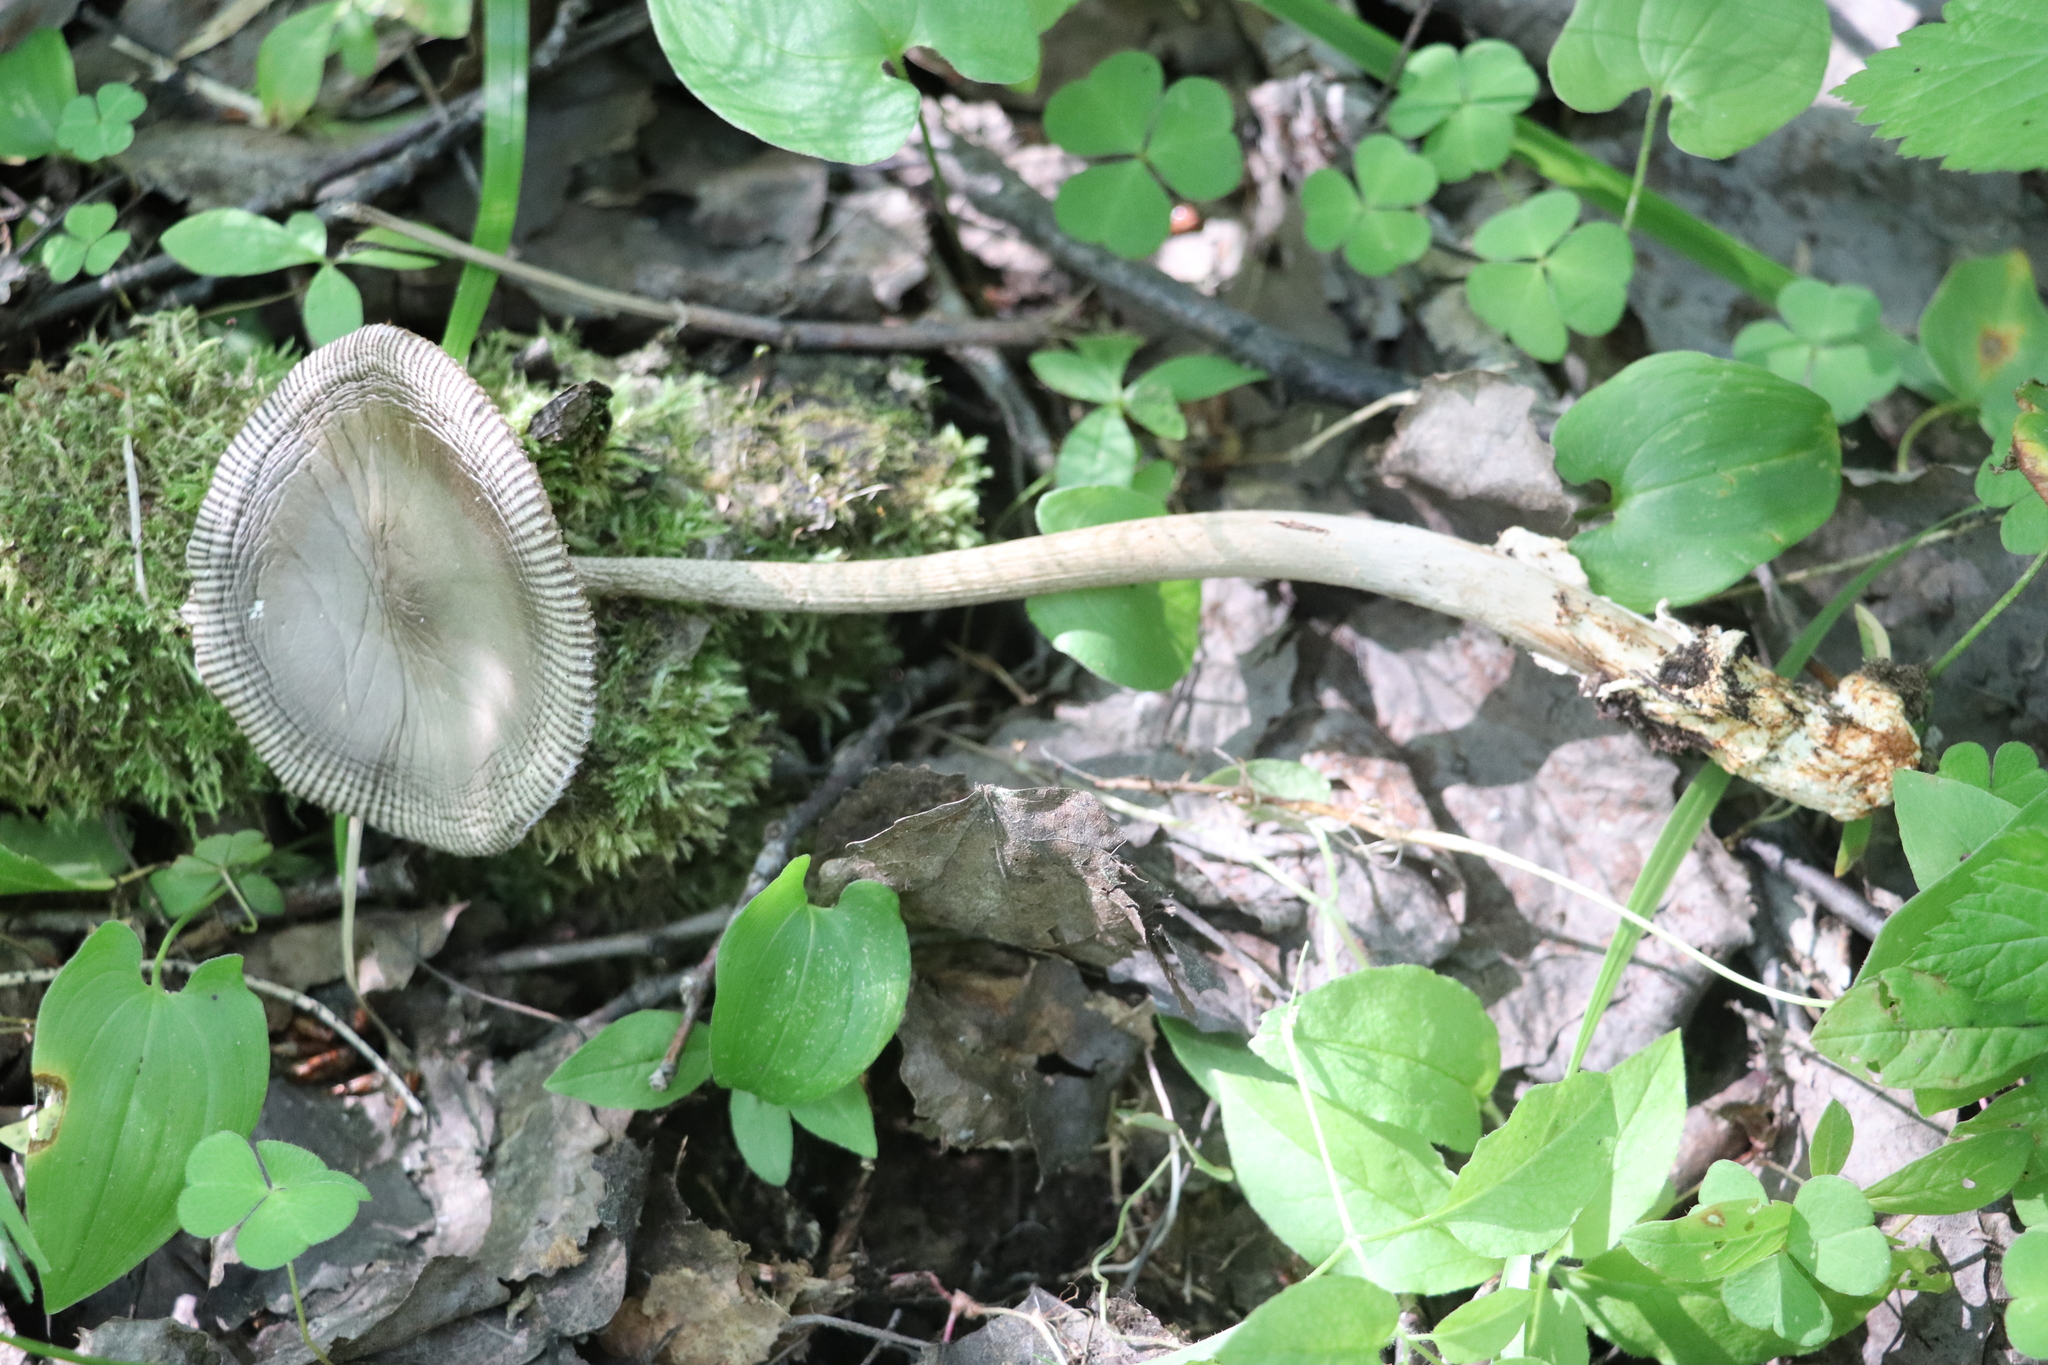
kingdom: Fungi
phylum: Basidiomycota
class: Agaricomycetes
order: Agaricales
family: Amanitaceae
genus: Amanita
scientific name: Amanita battarrae
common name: Banded amanita
